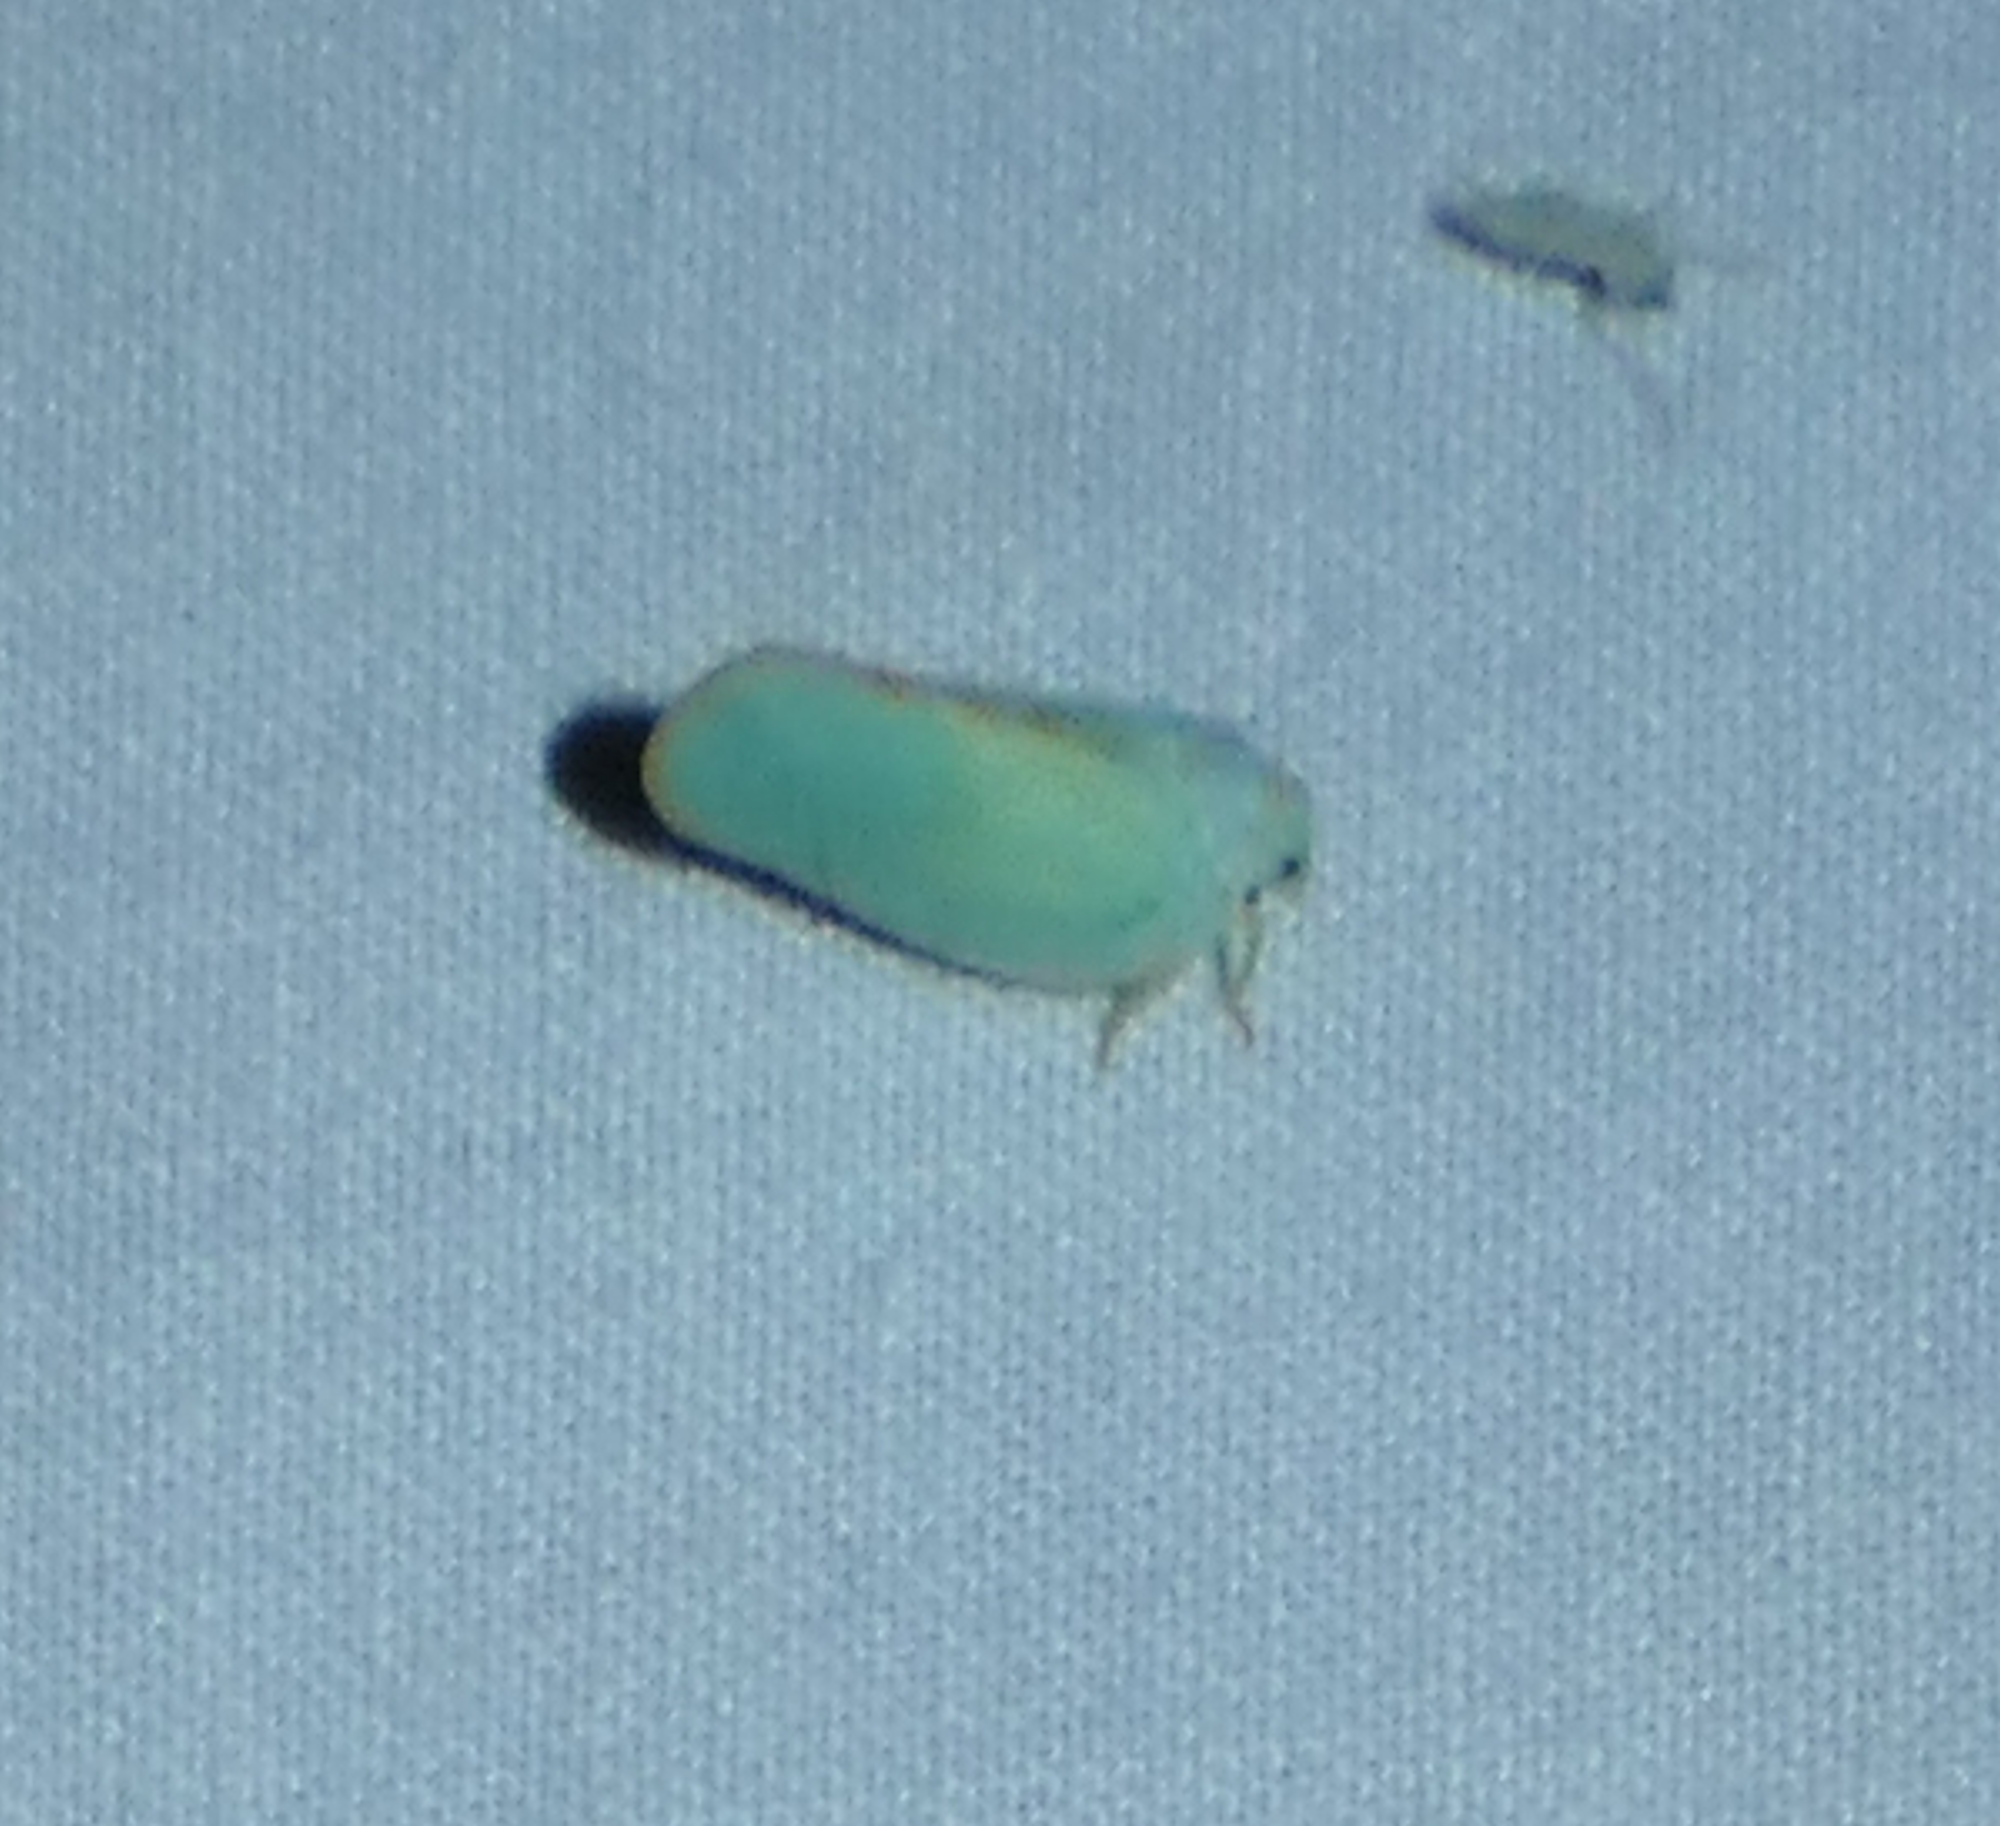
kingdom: Animalia
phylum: Arthropoda
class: Insecta
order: Hemiptera
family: Flatidae
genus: Ormenoides
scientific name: Ormenoides venusta
